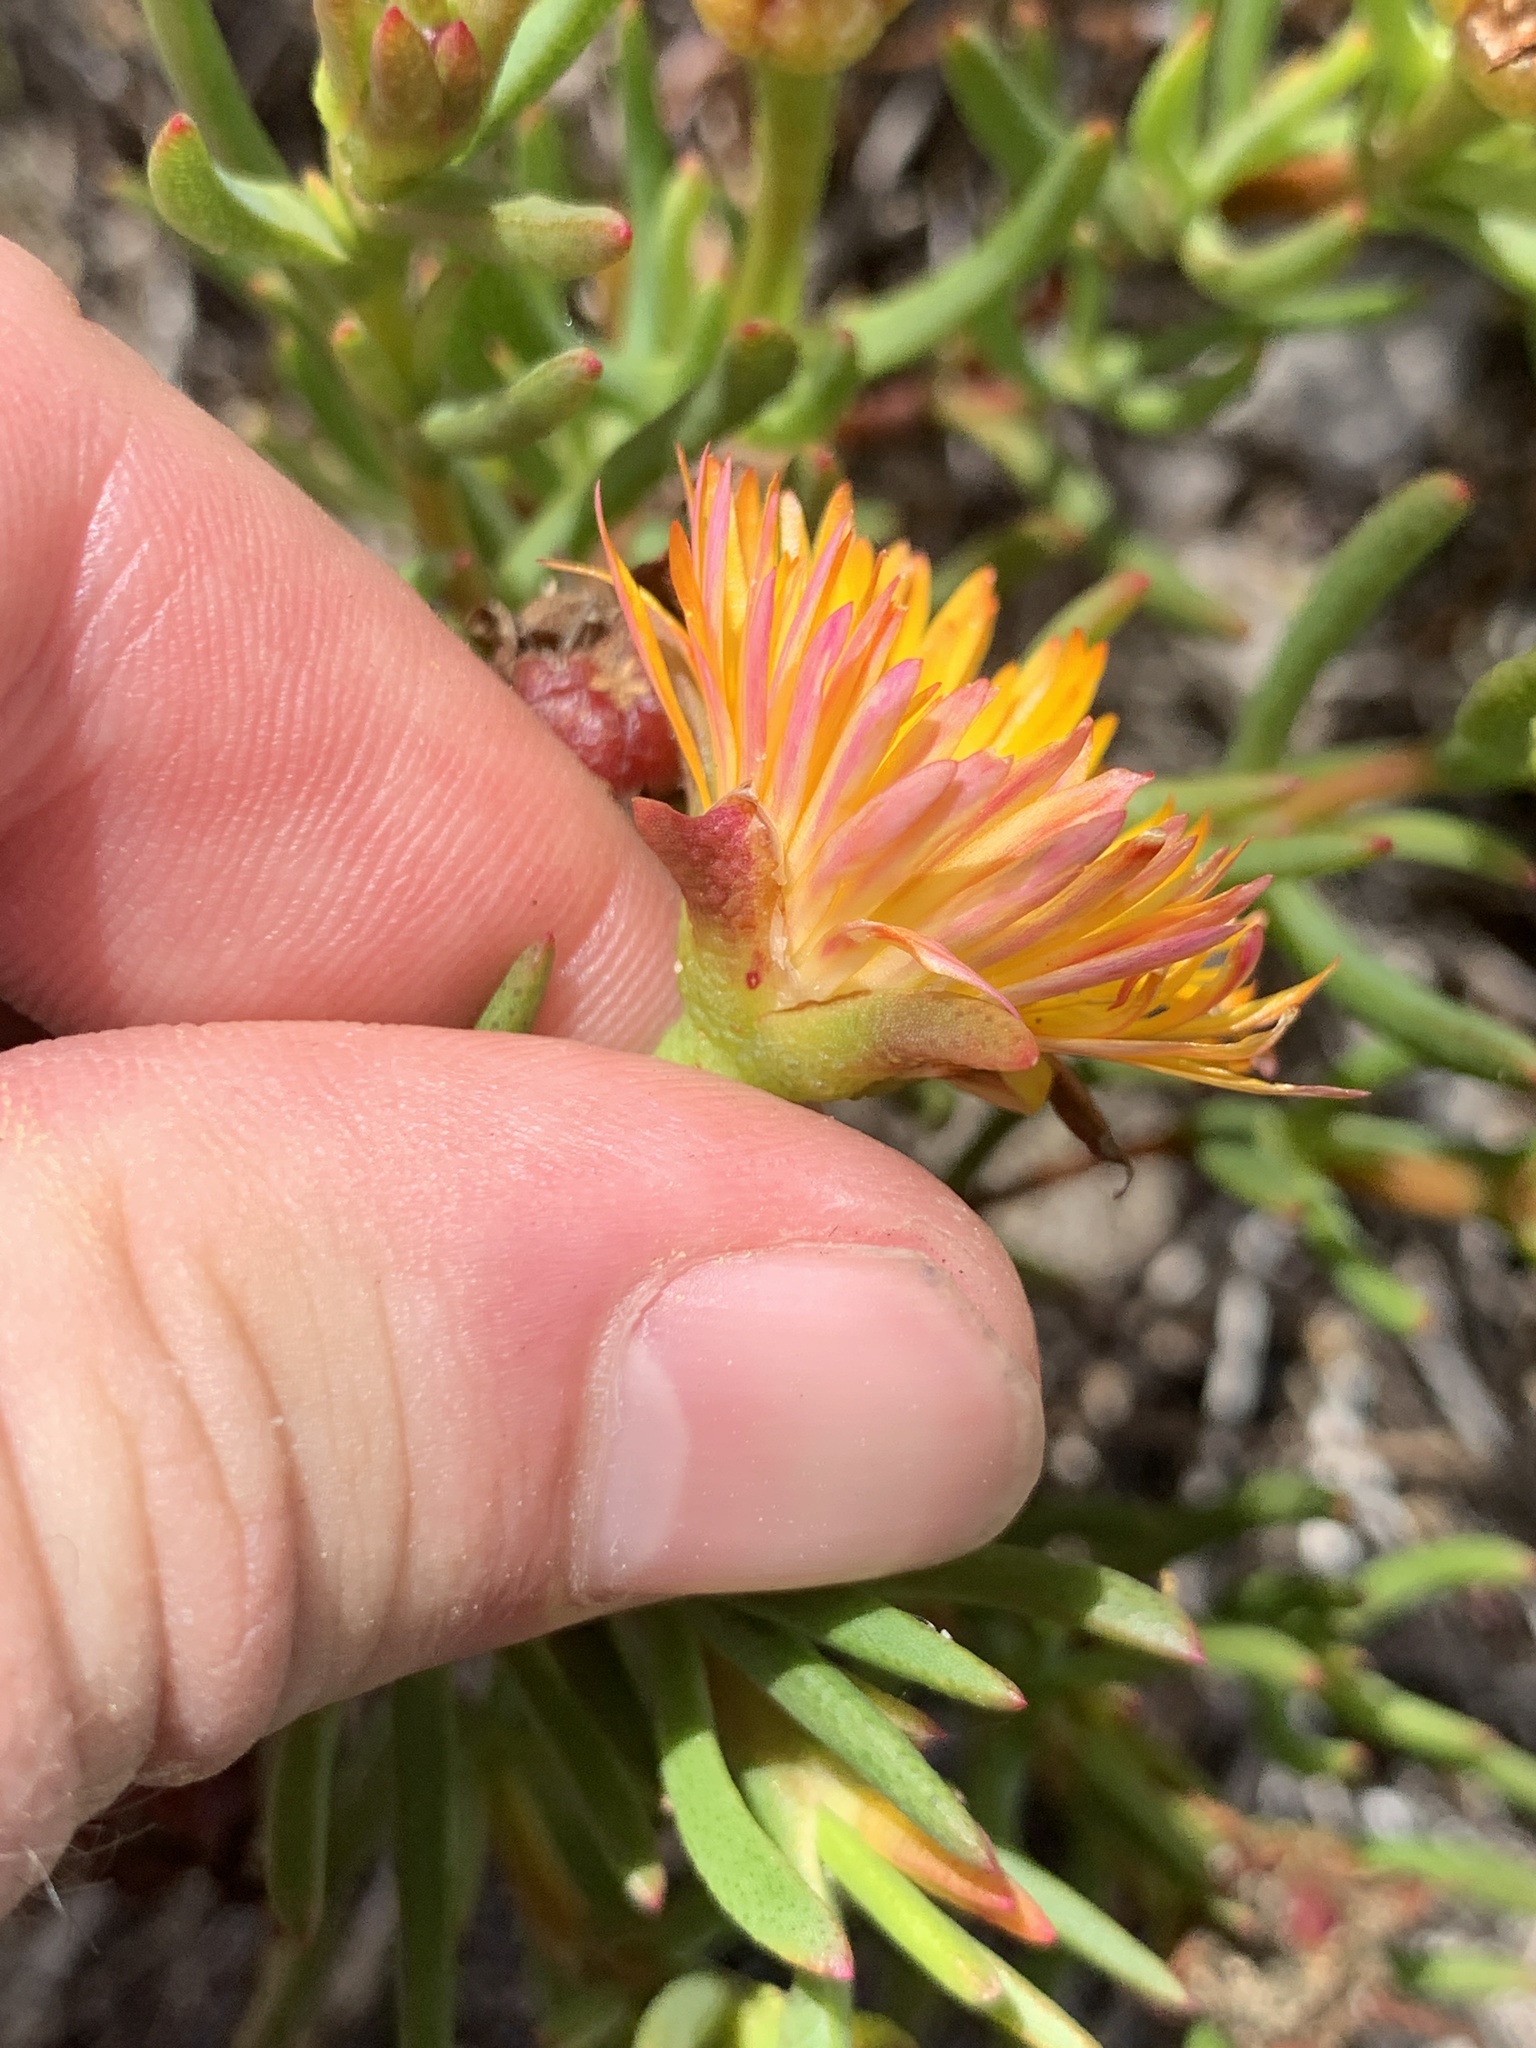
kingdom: Plantae
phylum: Tracheophyta
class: Magnoliopsida
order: Caryophyllales
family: Aizoaceae
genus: Lampranthus
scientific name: Lampranthus bicolor
